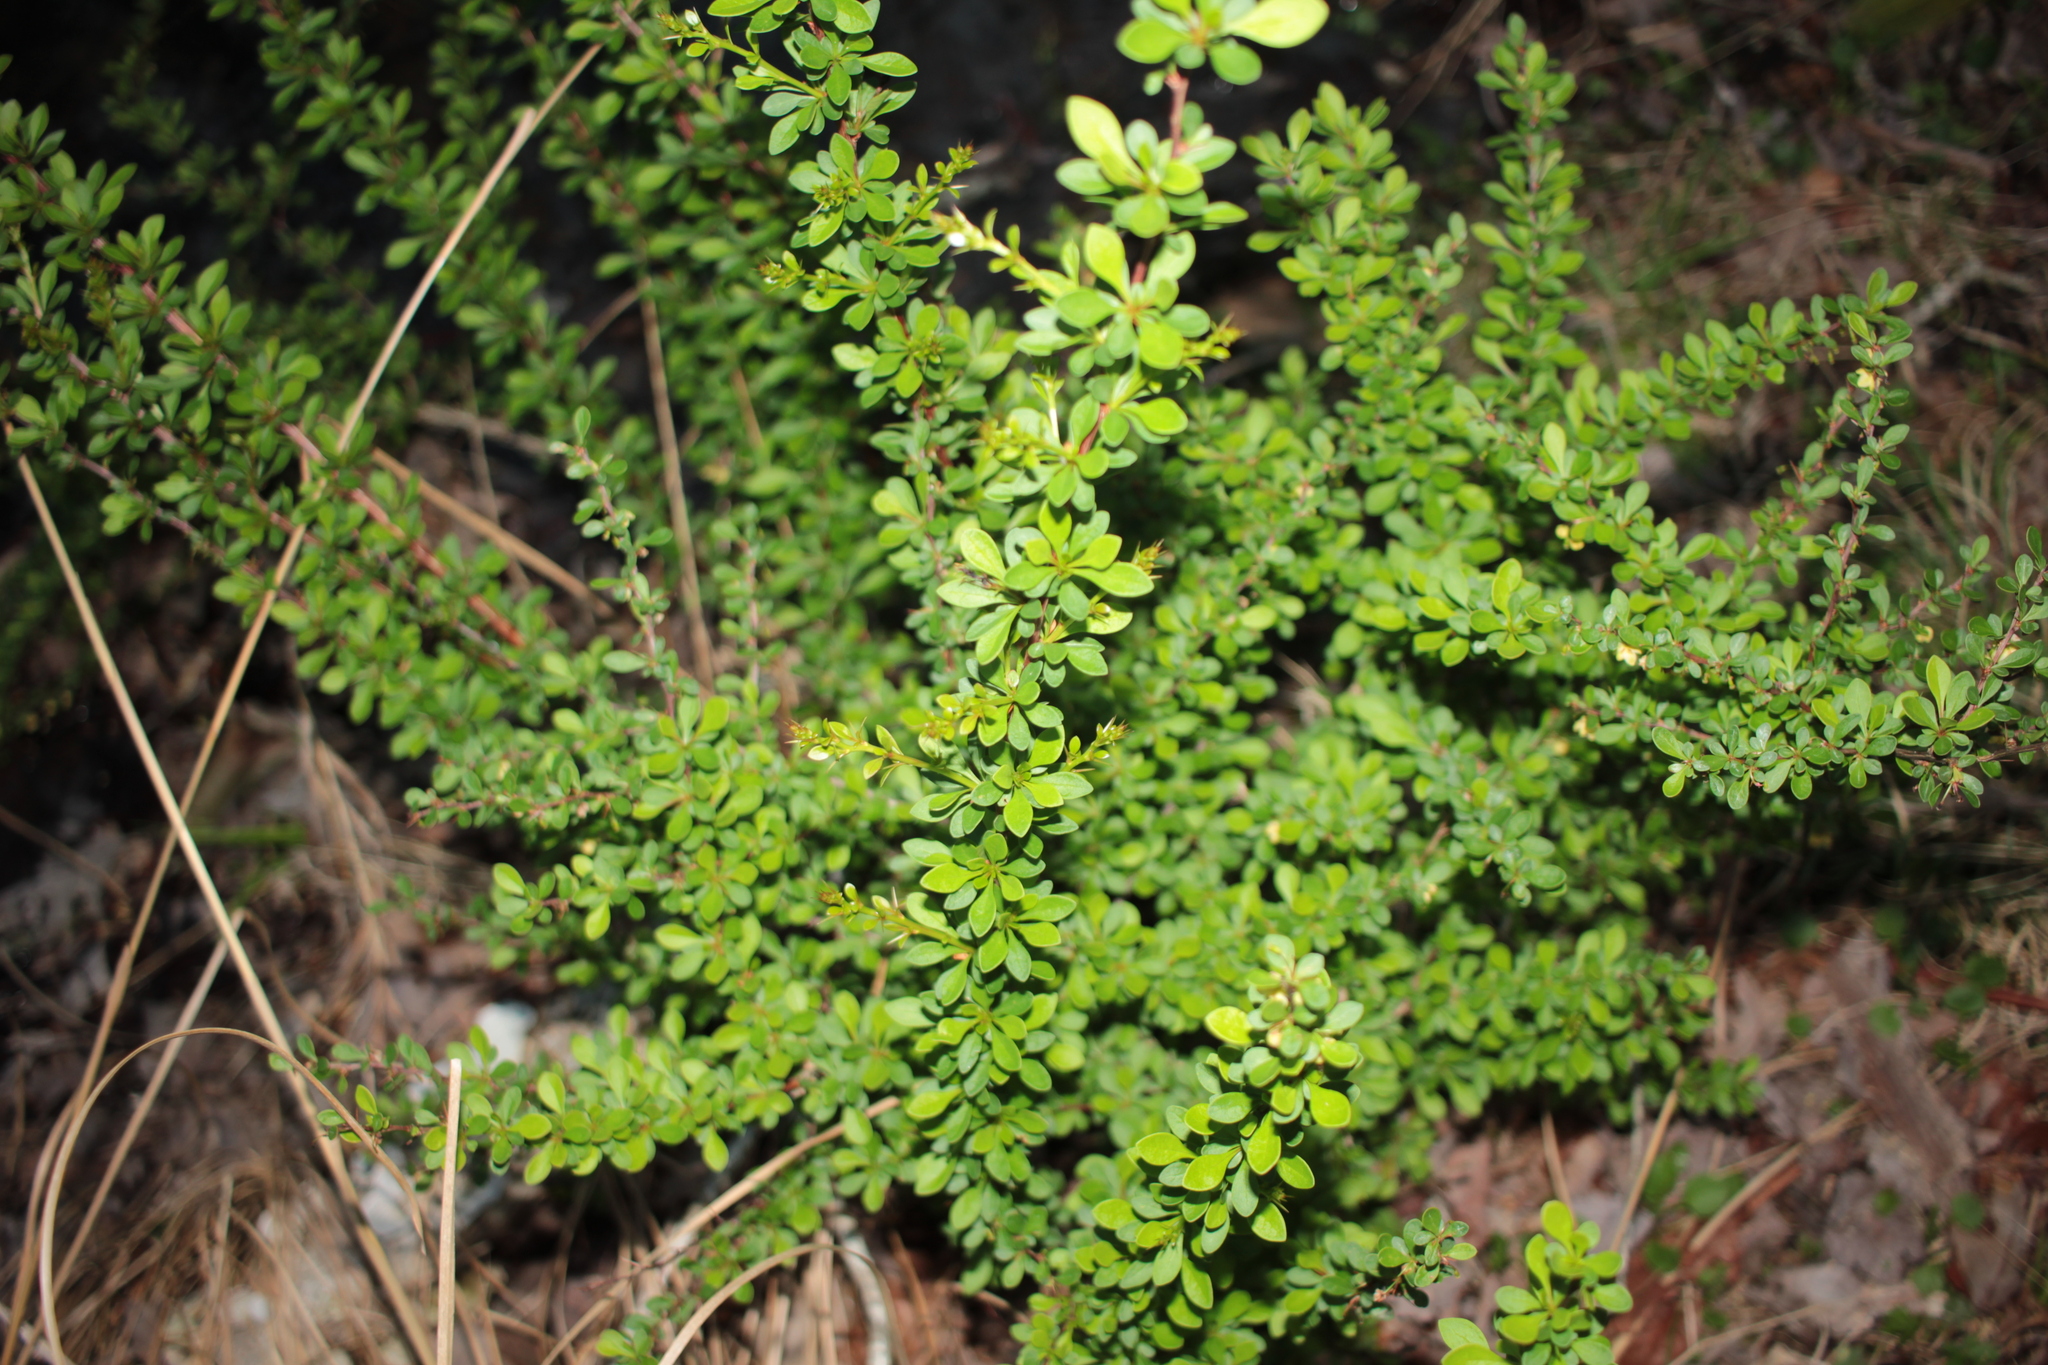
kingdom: Plantae
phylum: Tracheophyta
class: Magnoliopsida
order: Ranunculales
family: Berberidaceae
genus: Berberis
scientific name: Berberis thunbergii
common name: Japanese barberry
